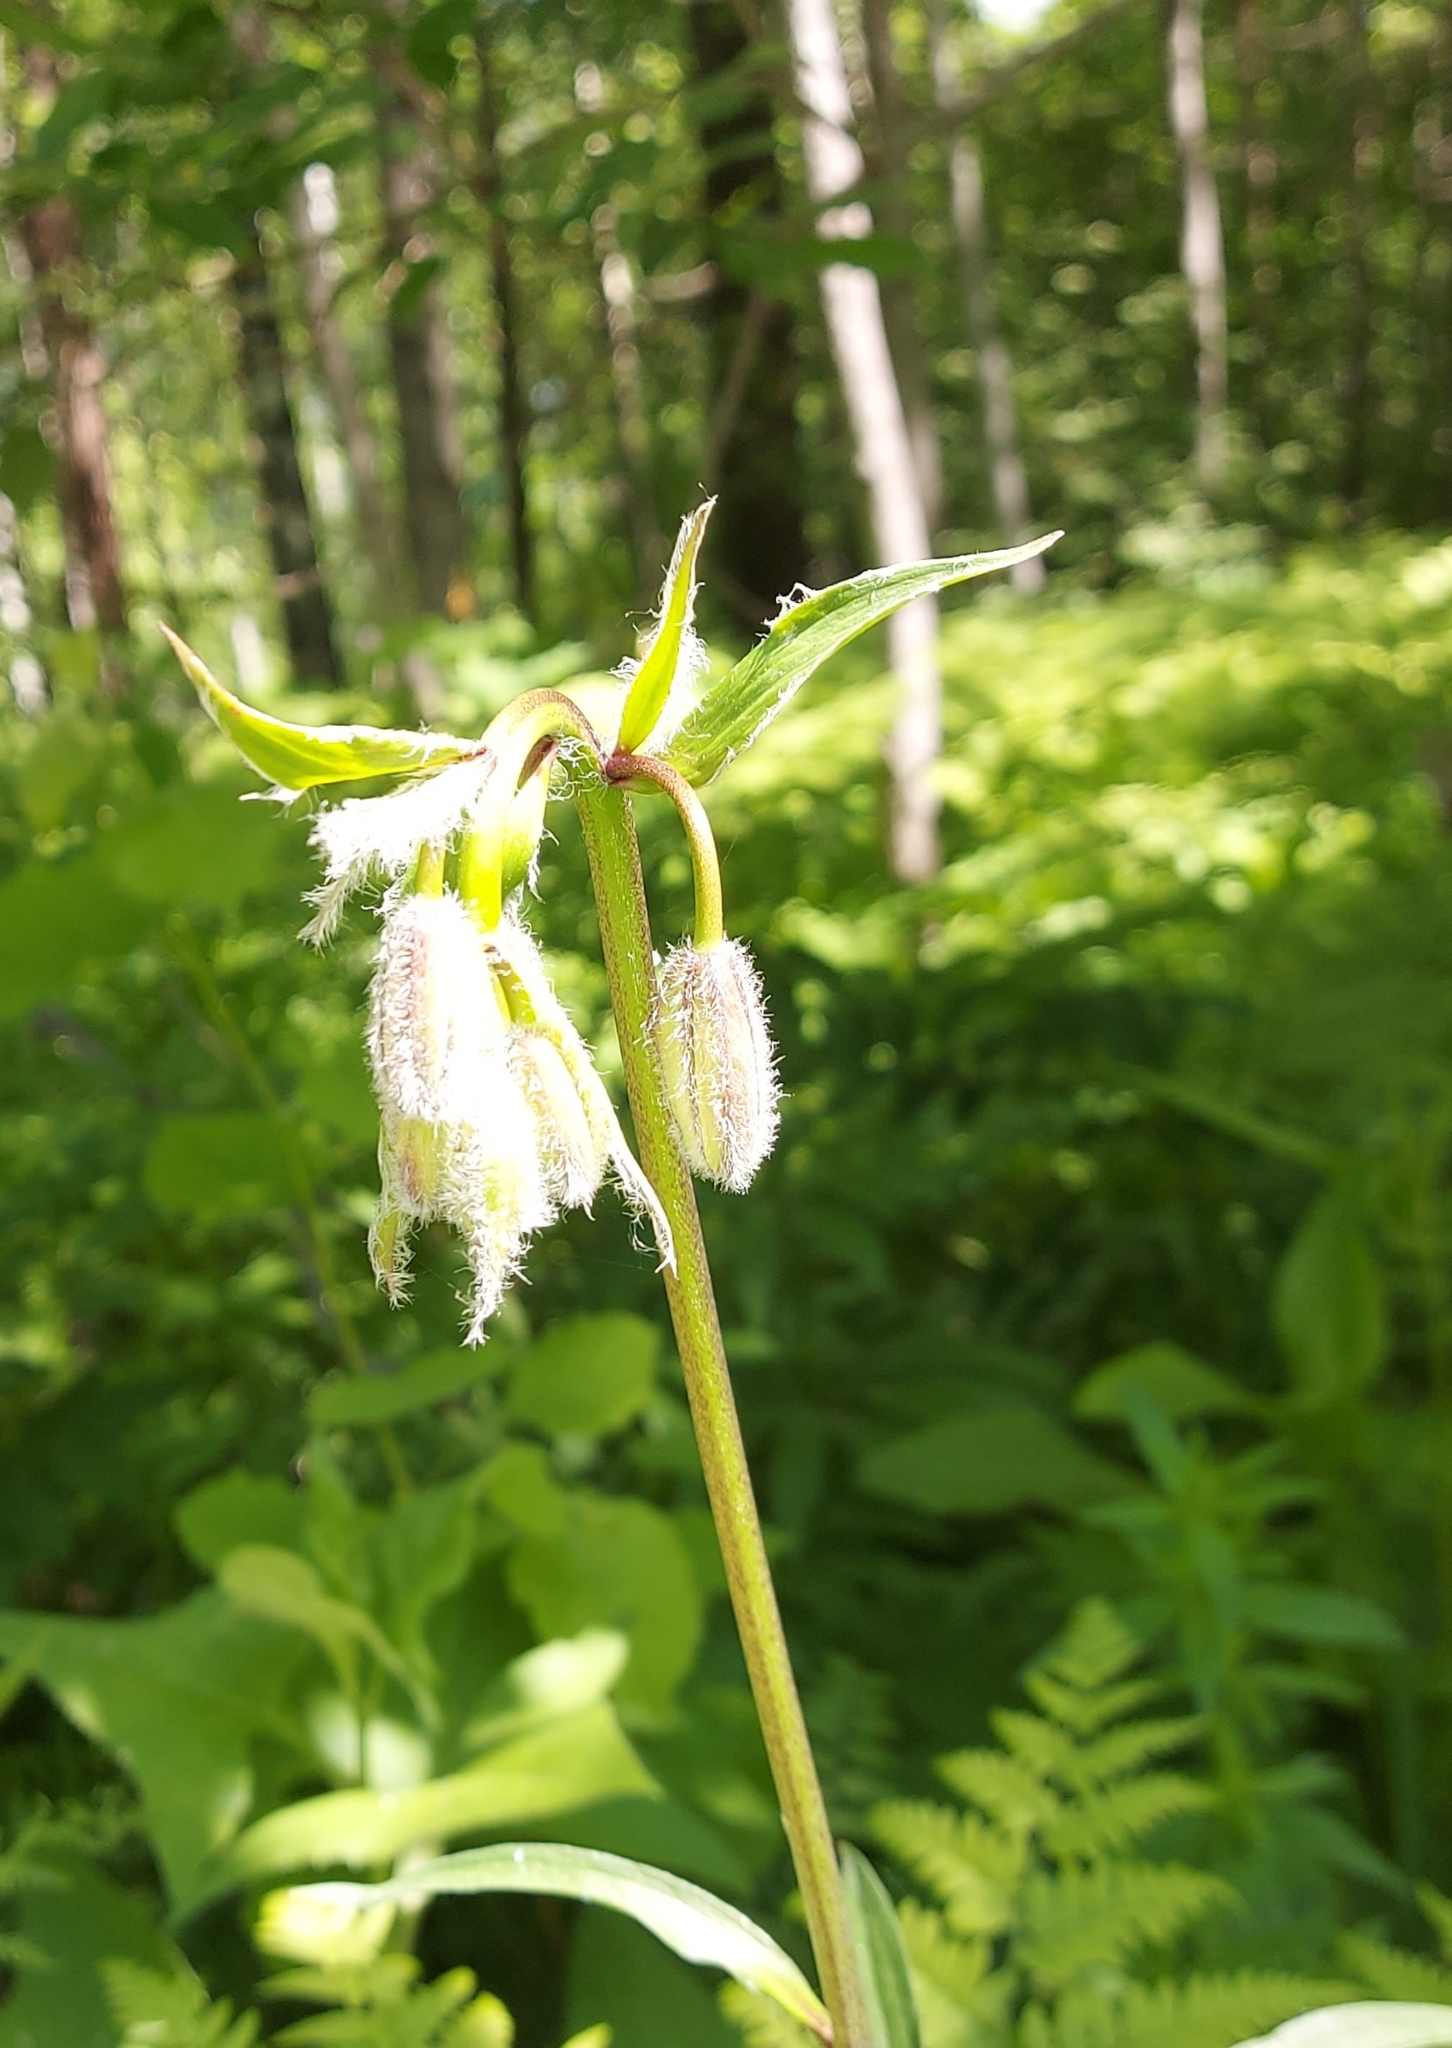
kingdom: Plantae
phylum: Tracheophyta
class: Liliopsida
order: Liliales
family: Liliaceae
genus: Lilium
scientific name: Lilium martagon
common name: Martagon lily
